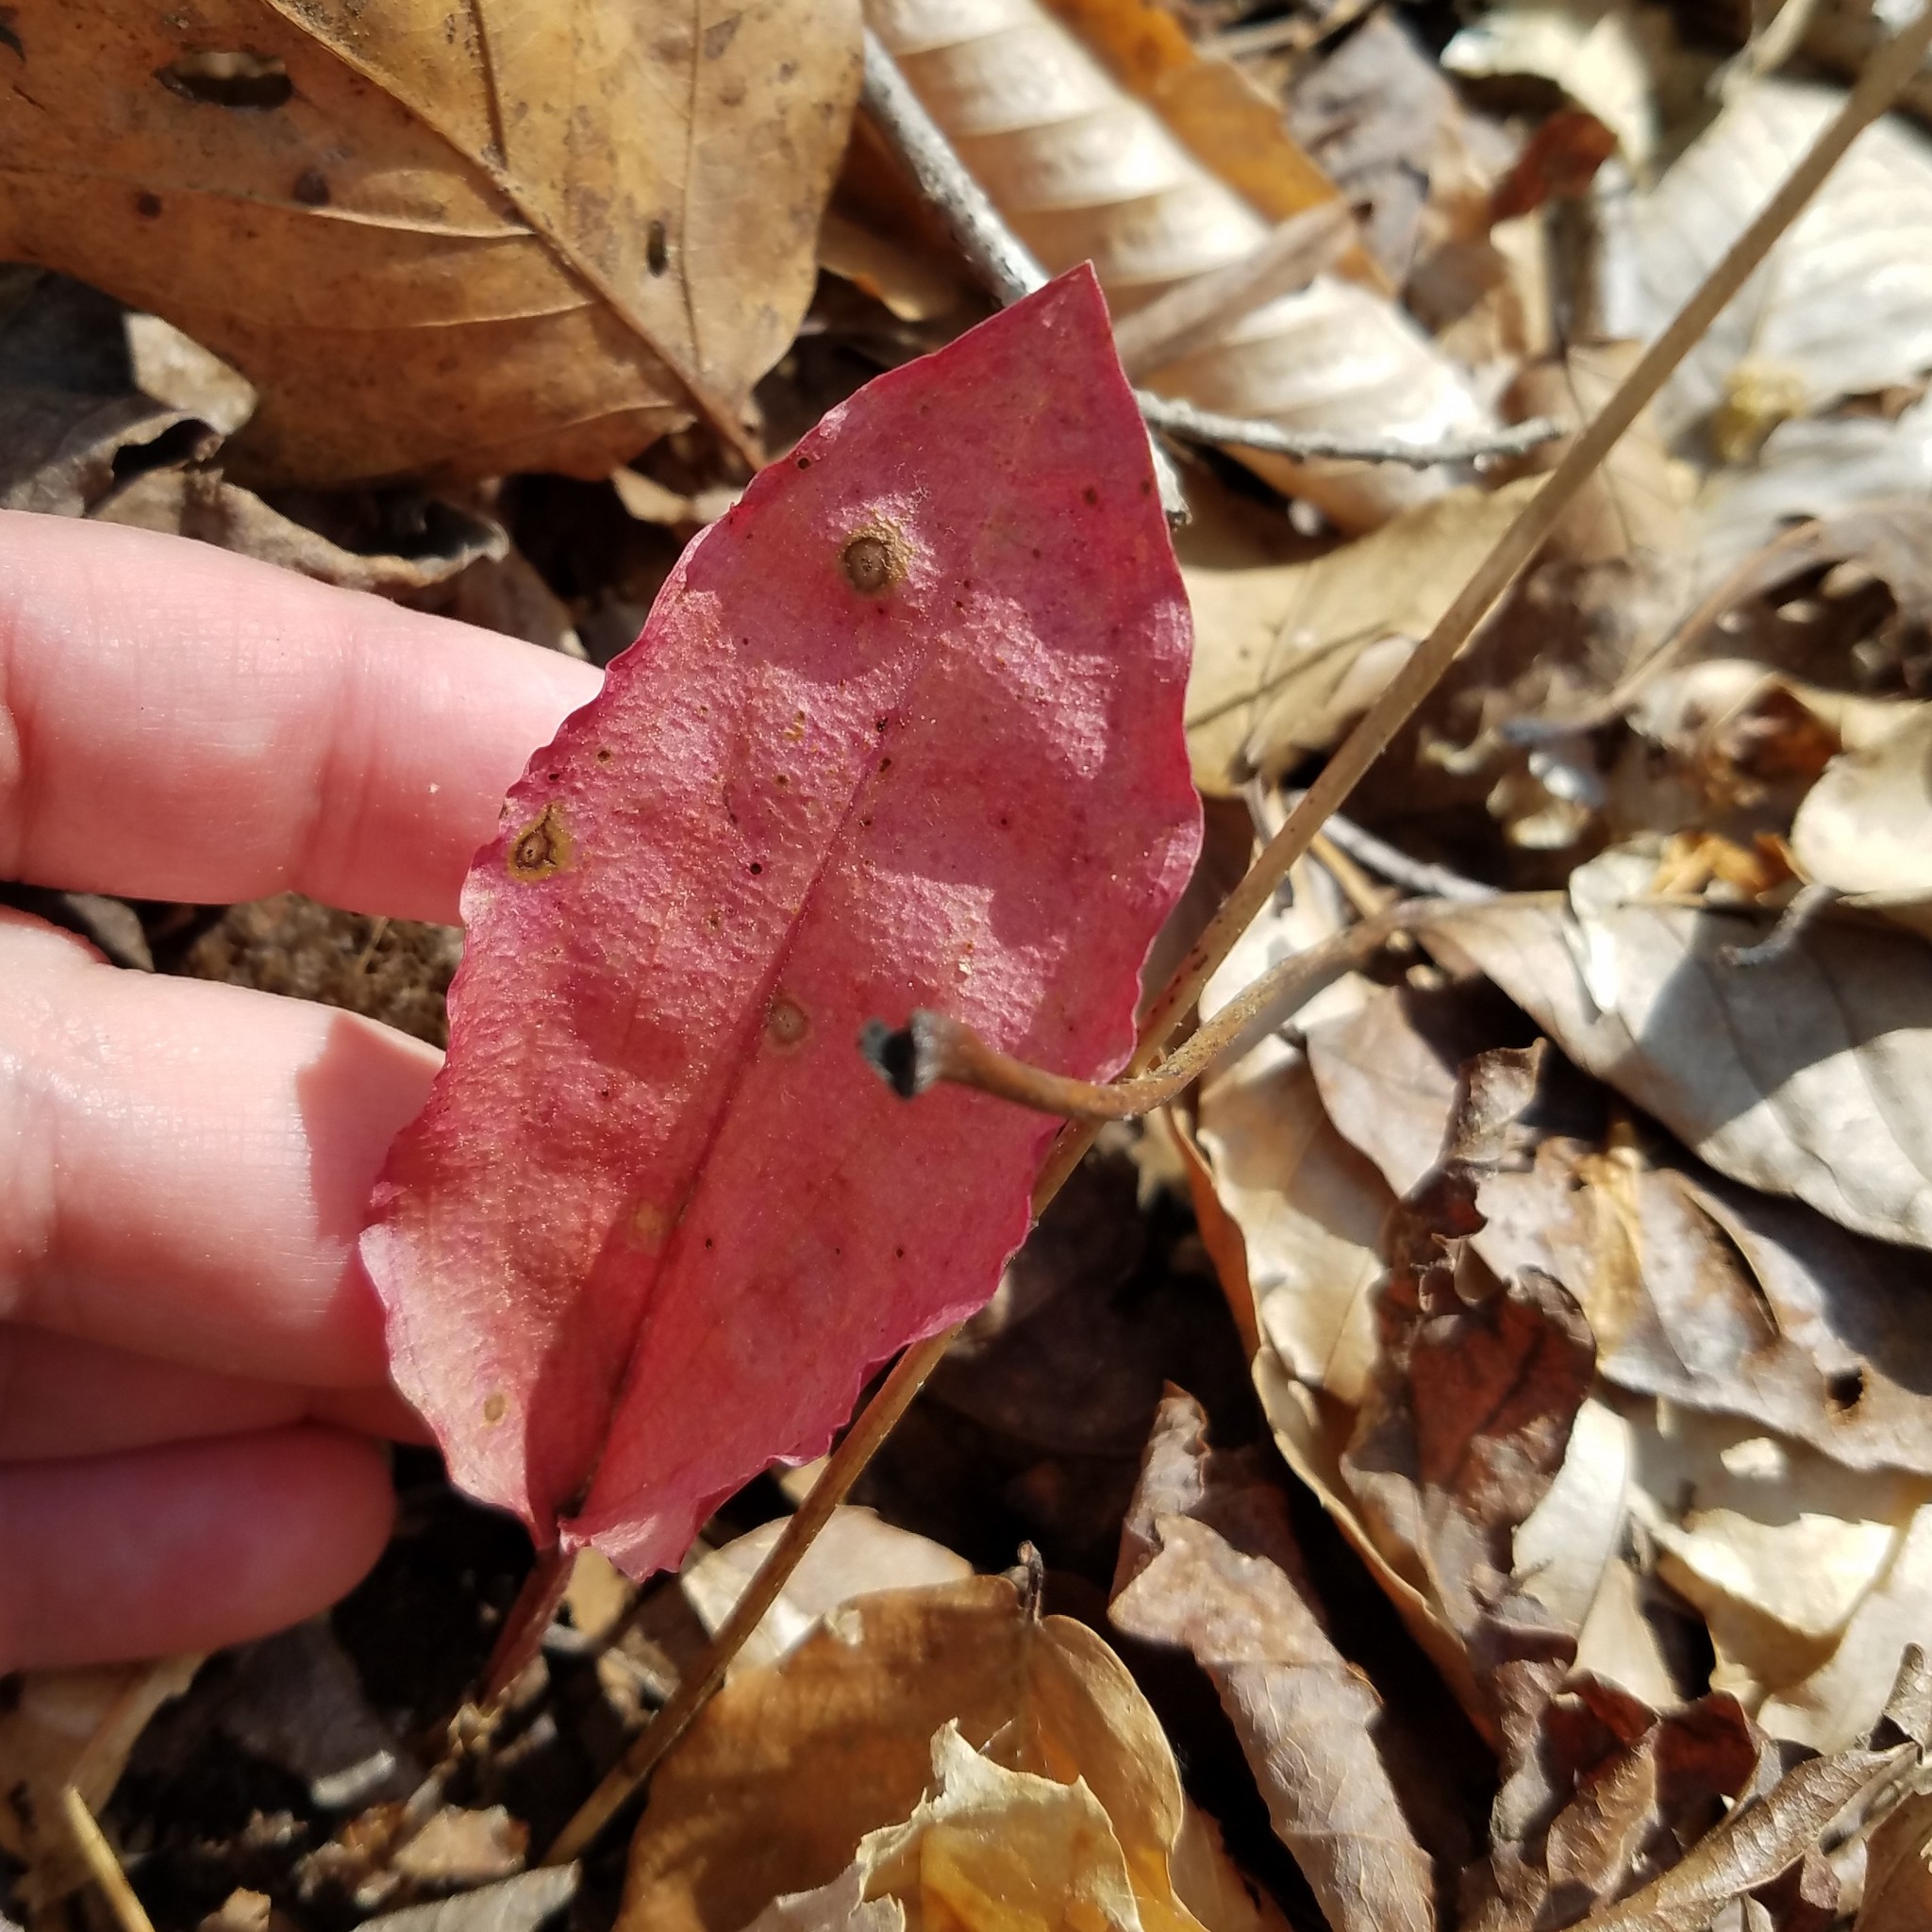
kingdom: Plantae
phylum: Tracheophyta
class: Liliopsida
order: Asparagales
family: Orchidaceae
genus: Tipularia
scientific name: Tipularia discolor
